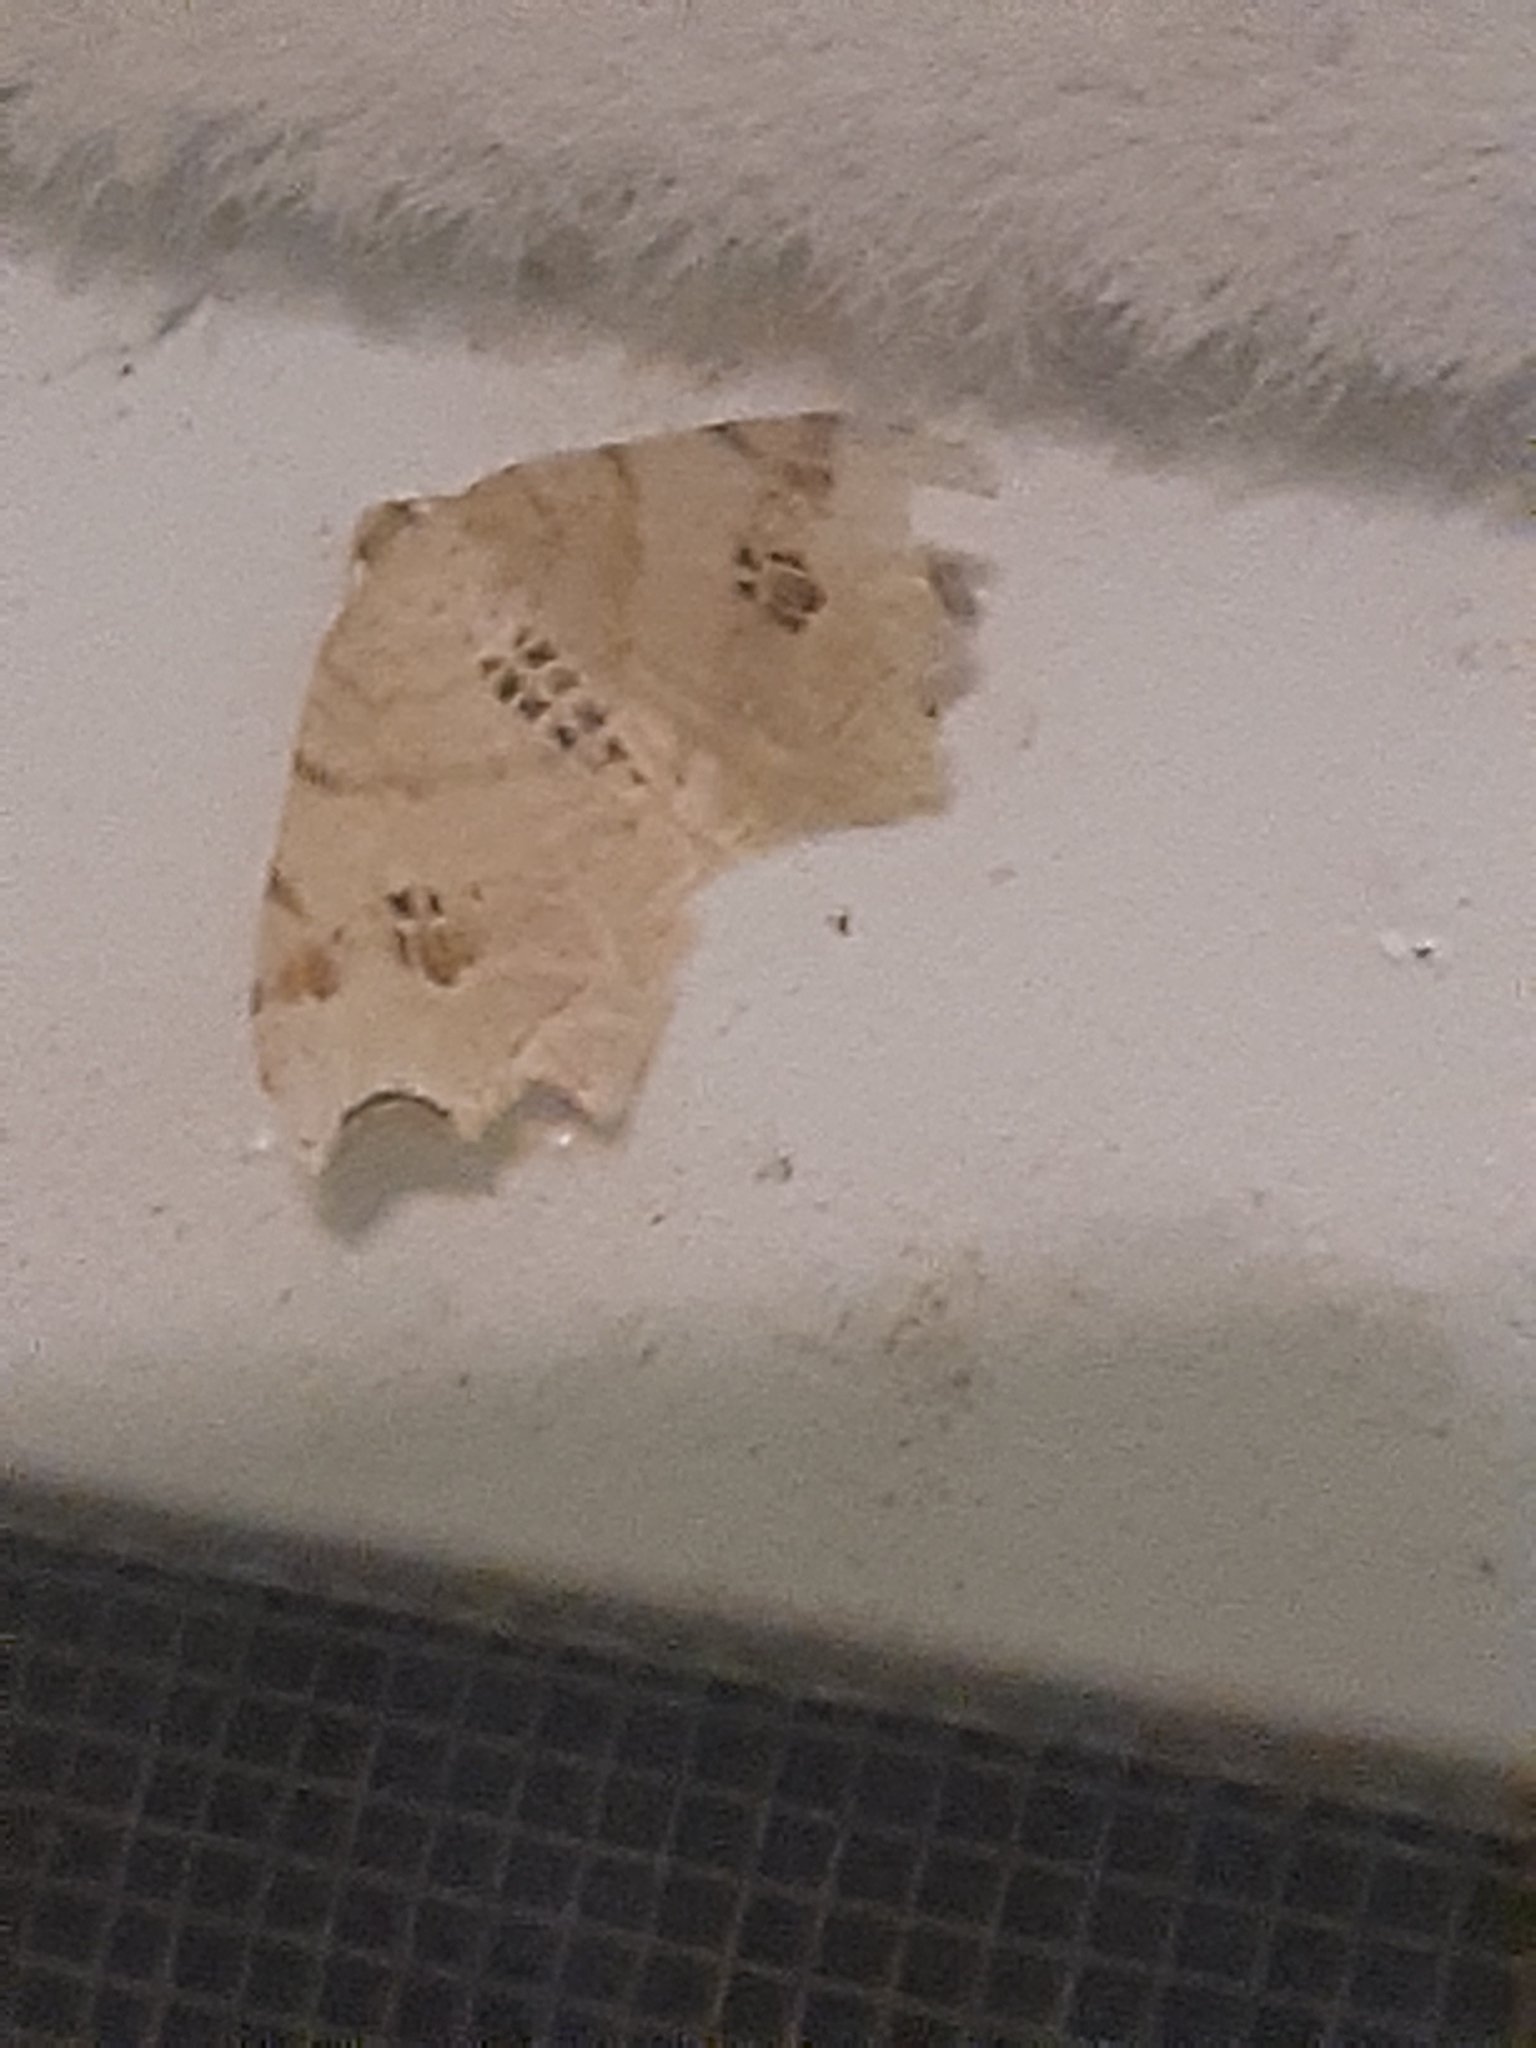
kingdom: Animalia
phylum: Arthropoda
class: Insecta
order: Lepidoptera
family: Geometridae
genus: Macaria
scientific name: Macaria aemulataria
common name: Common angle
